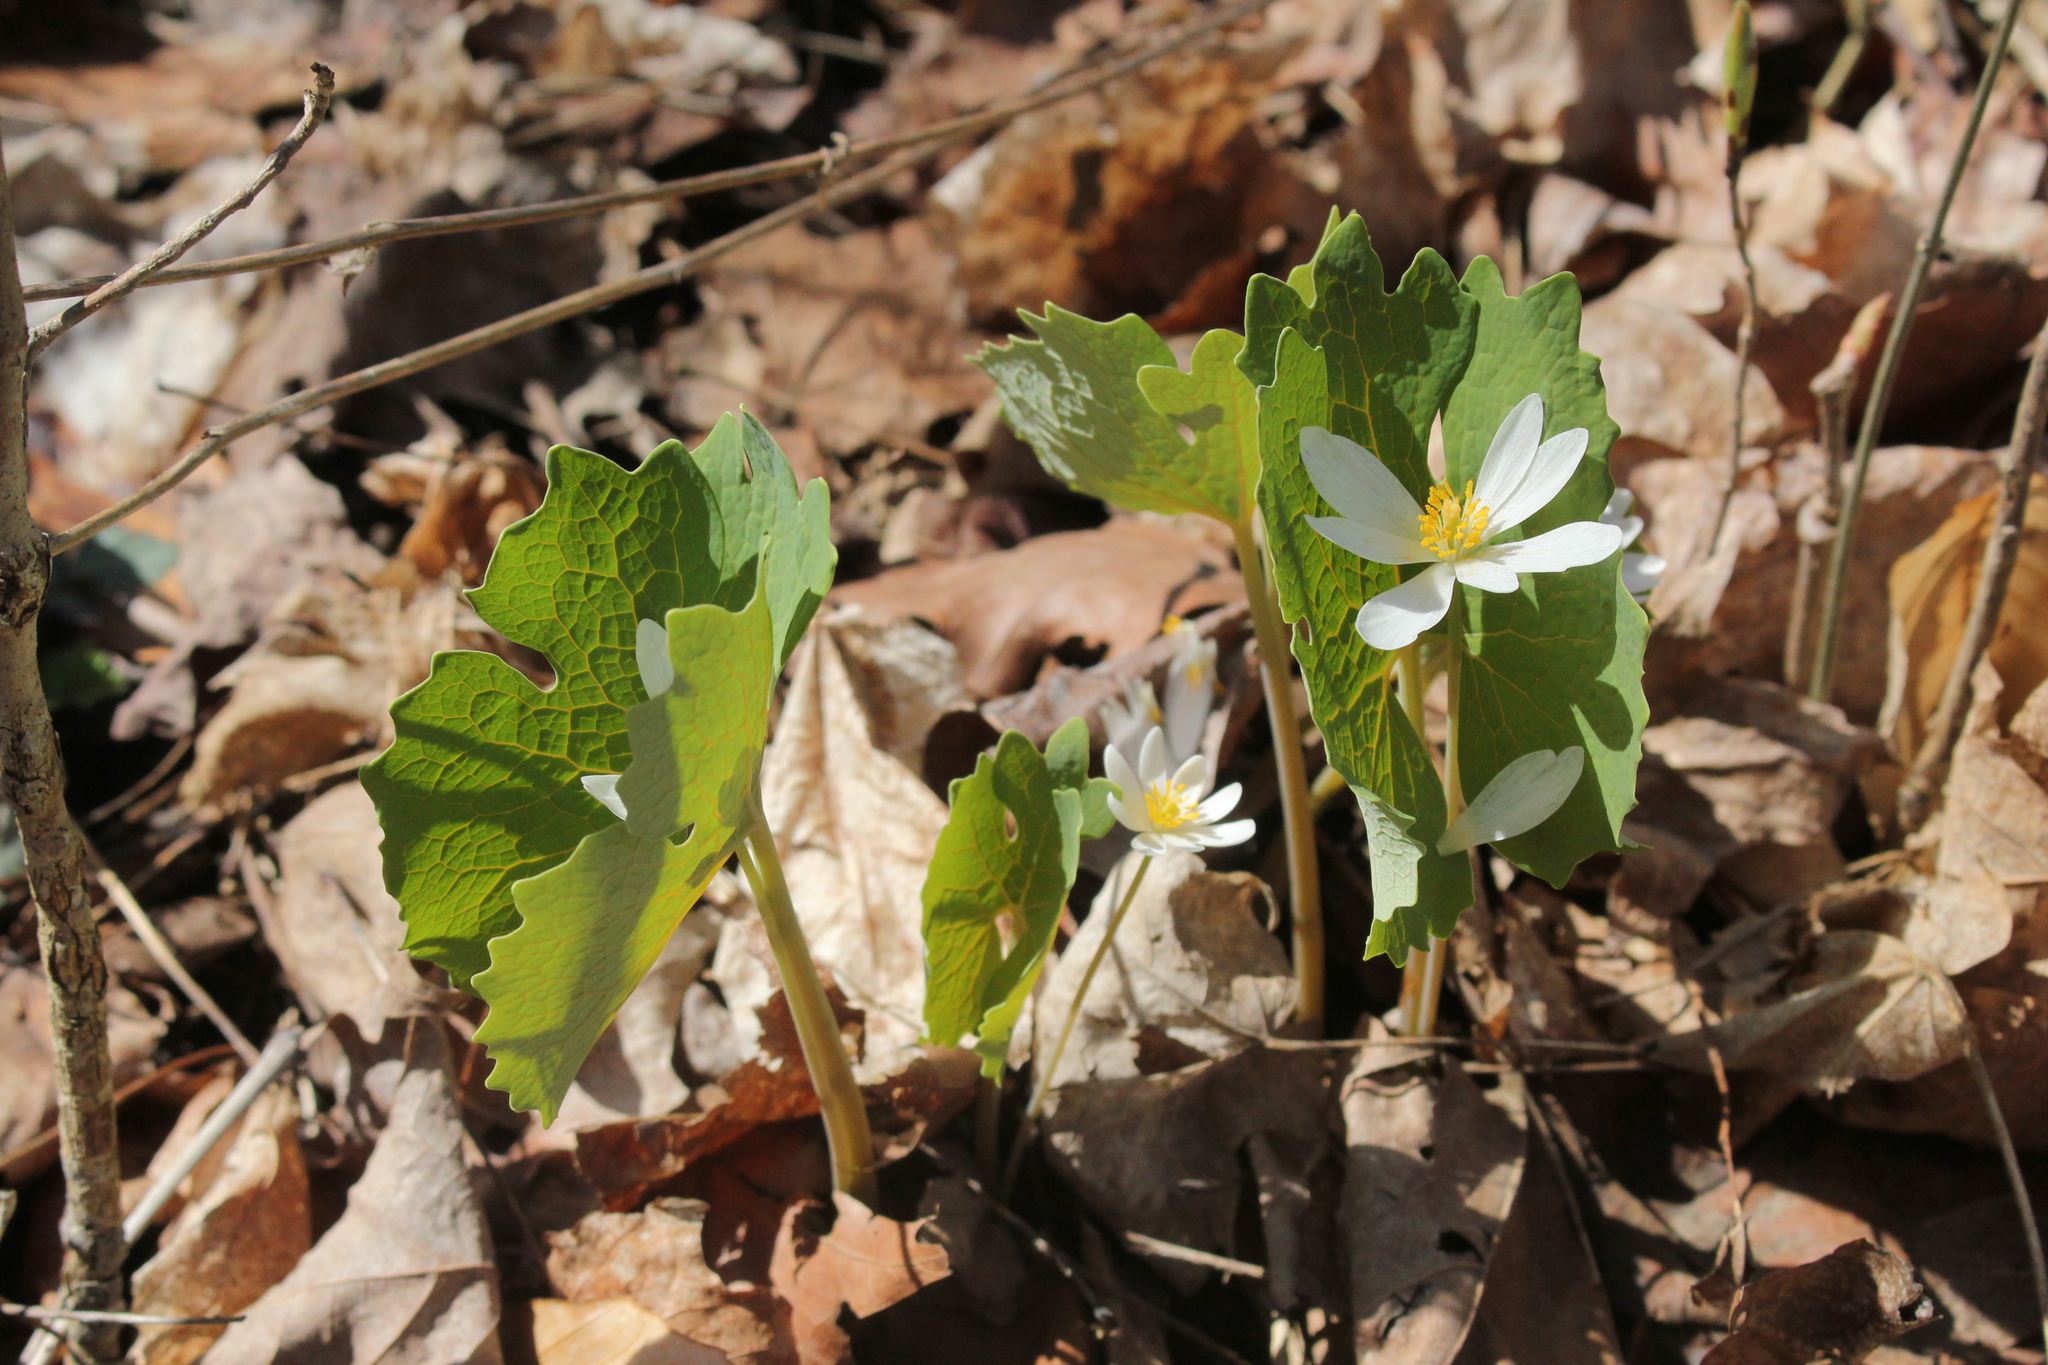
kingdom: Plantae
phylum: Tracheophyta
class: Magnoliopsida
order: Ranunculales
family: Papaveraceae
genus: Sanguinaria
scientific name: Sanguinaria canadensis
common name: Bloodroot
